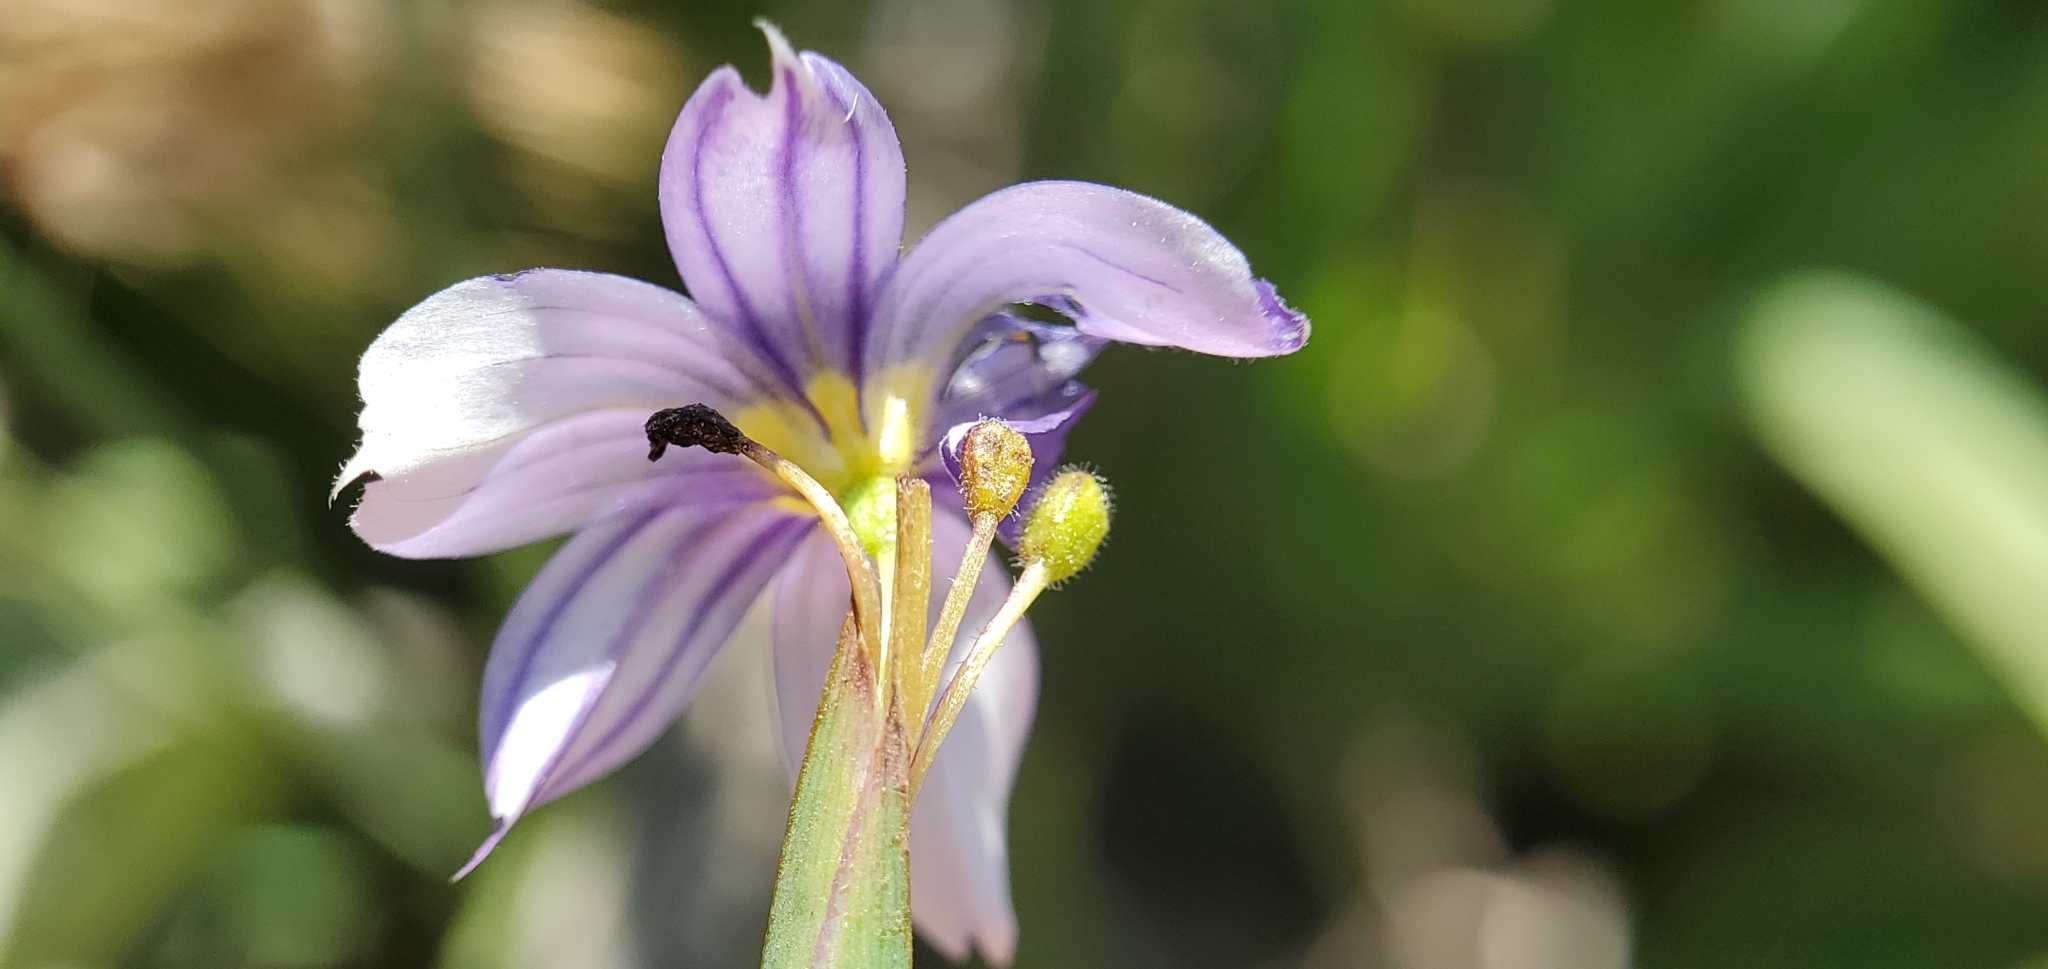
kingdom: Plantae
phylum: Tracheophyta
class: Liliopsida
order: Asparagales
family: Iridaceae
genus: Sisyrinchium
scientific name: Sisyrinchium bellum
